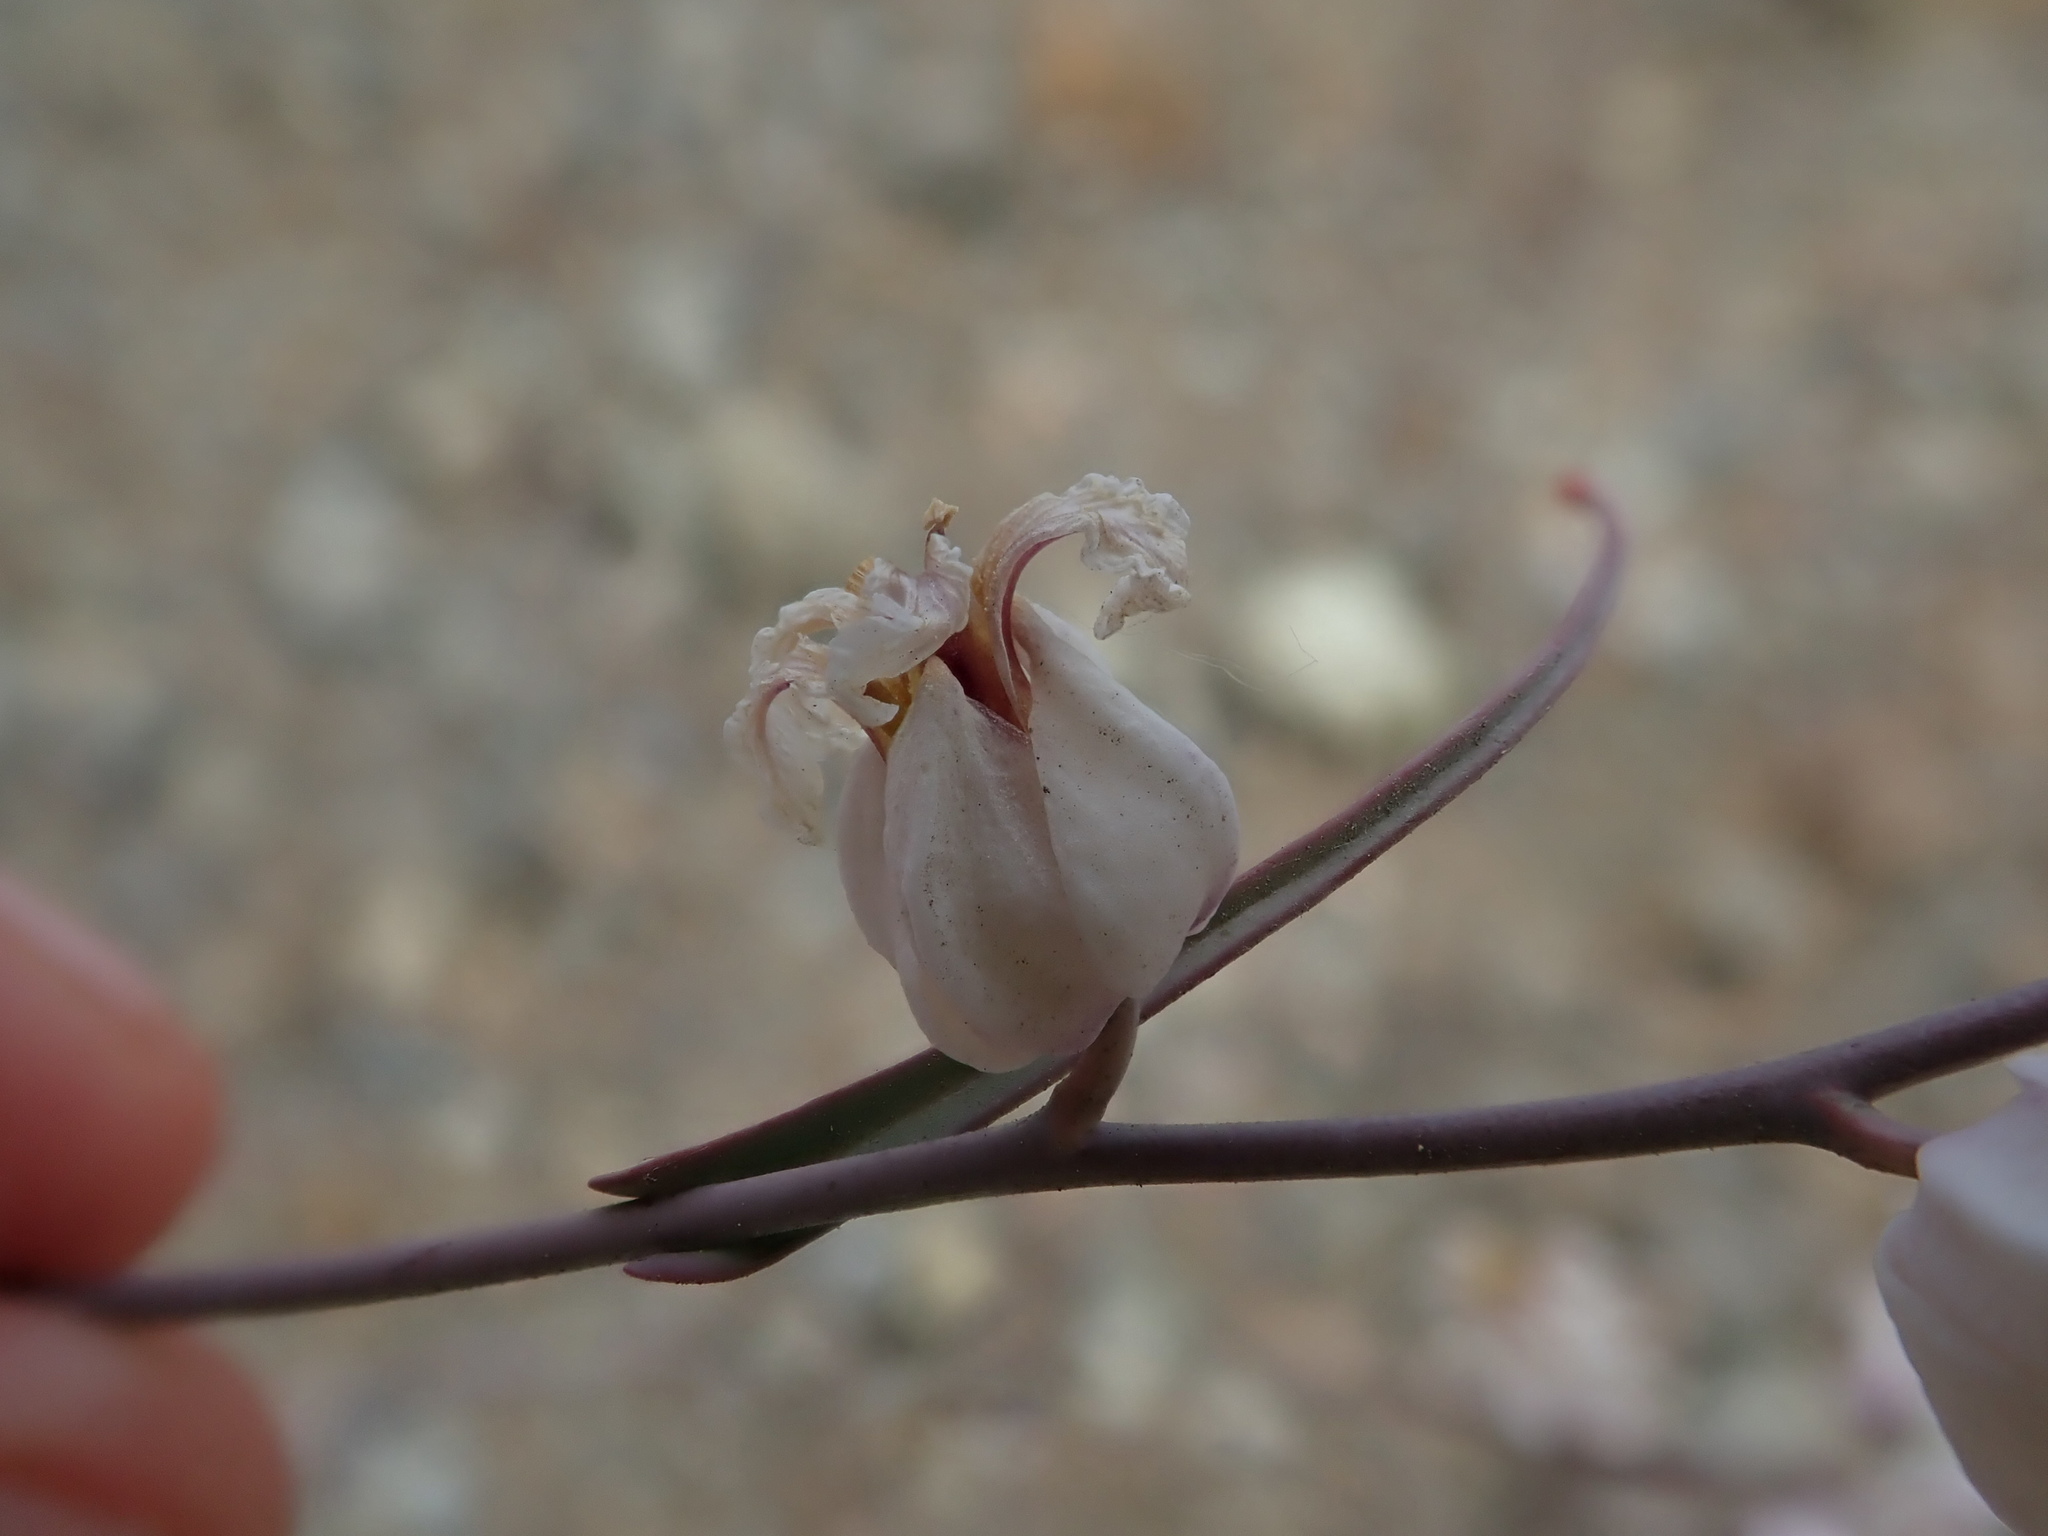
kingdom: Plantae
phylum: Tracheophyta
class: Magnoliopsida
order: Brassicales
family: Brassicaceae
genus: Streptanthus
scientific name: Streptanthus glandulosus
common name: Jewel-flower
